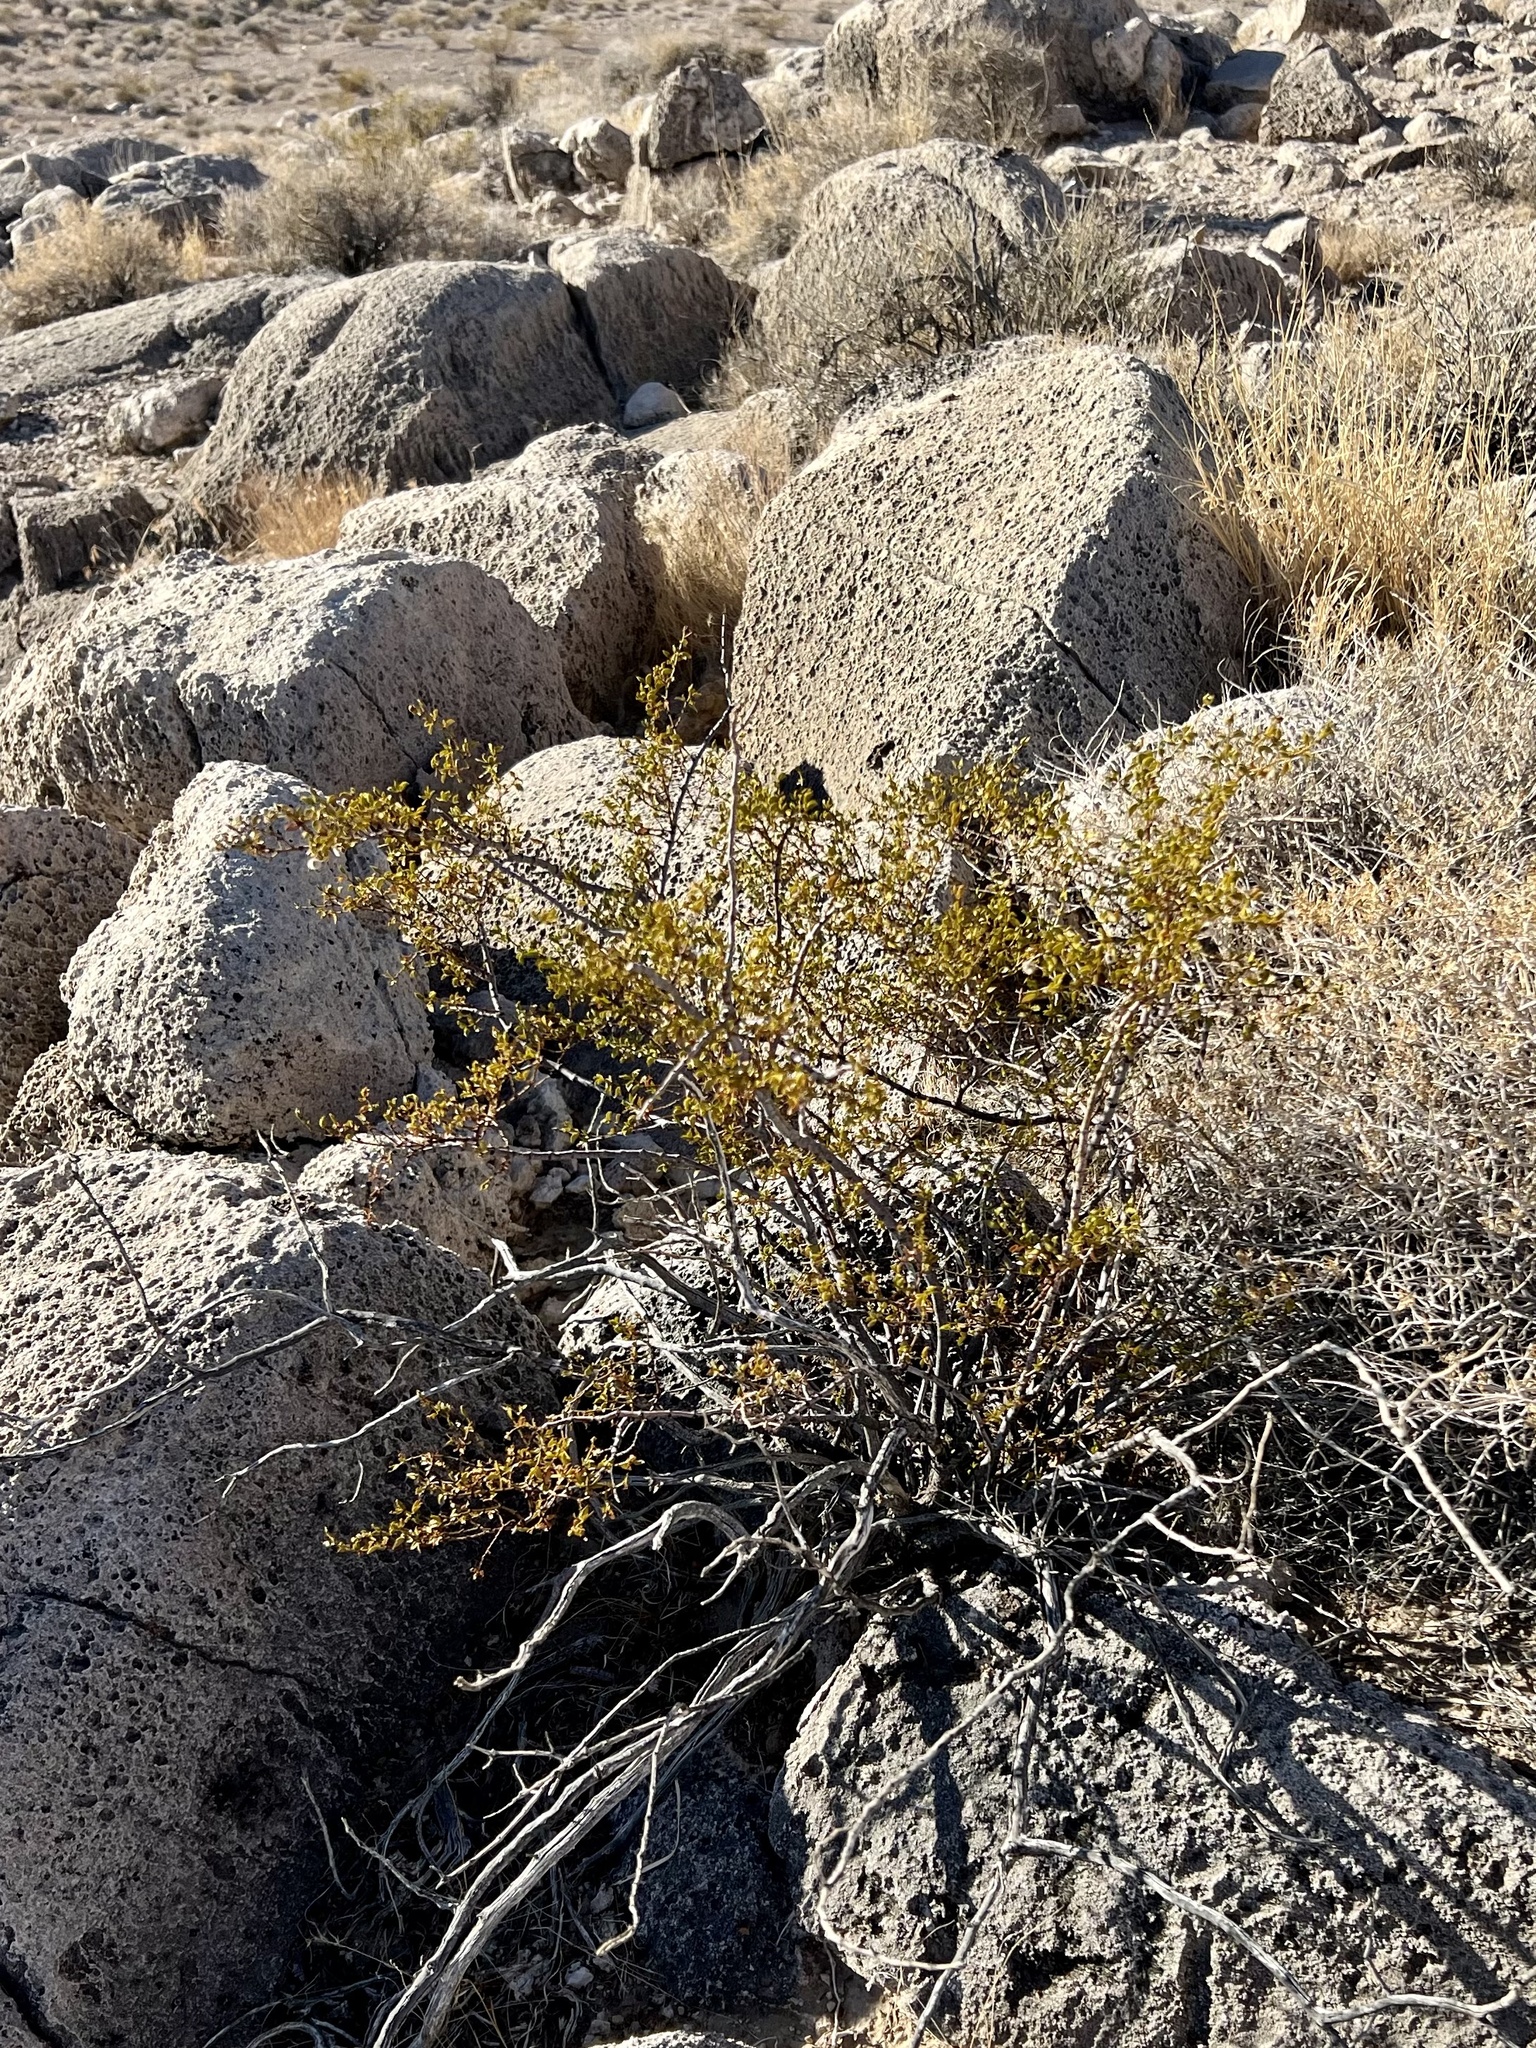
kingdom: Plantae
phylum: Tracheophyta
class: Magnoliopsida
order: Zygophyllales
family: Zygophyllaceae
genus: Larrea
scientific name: Larrea tridentata
